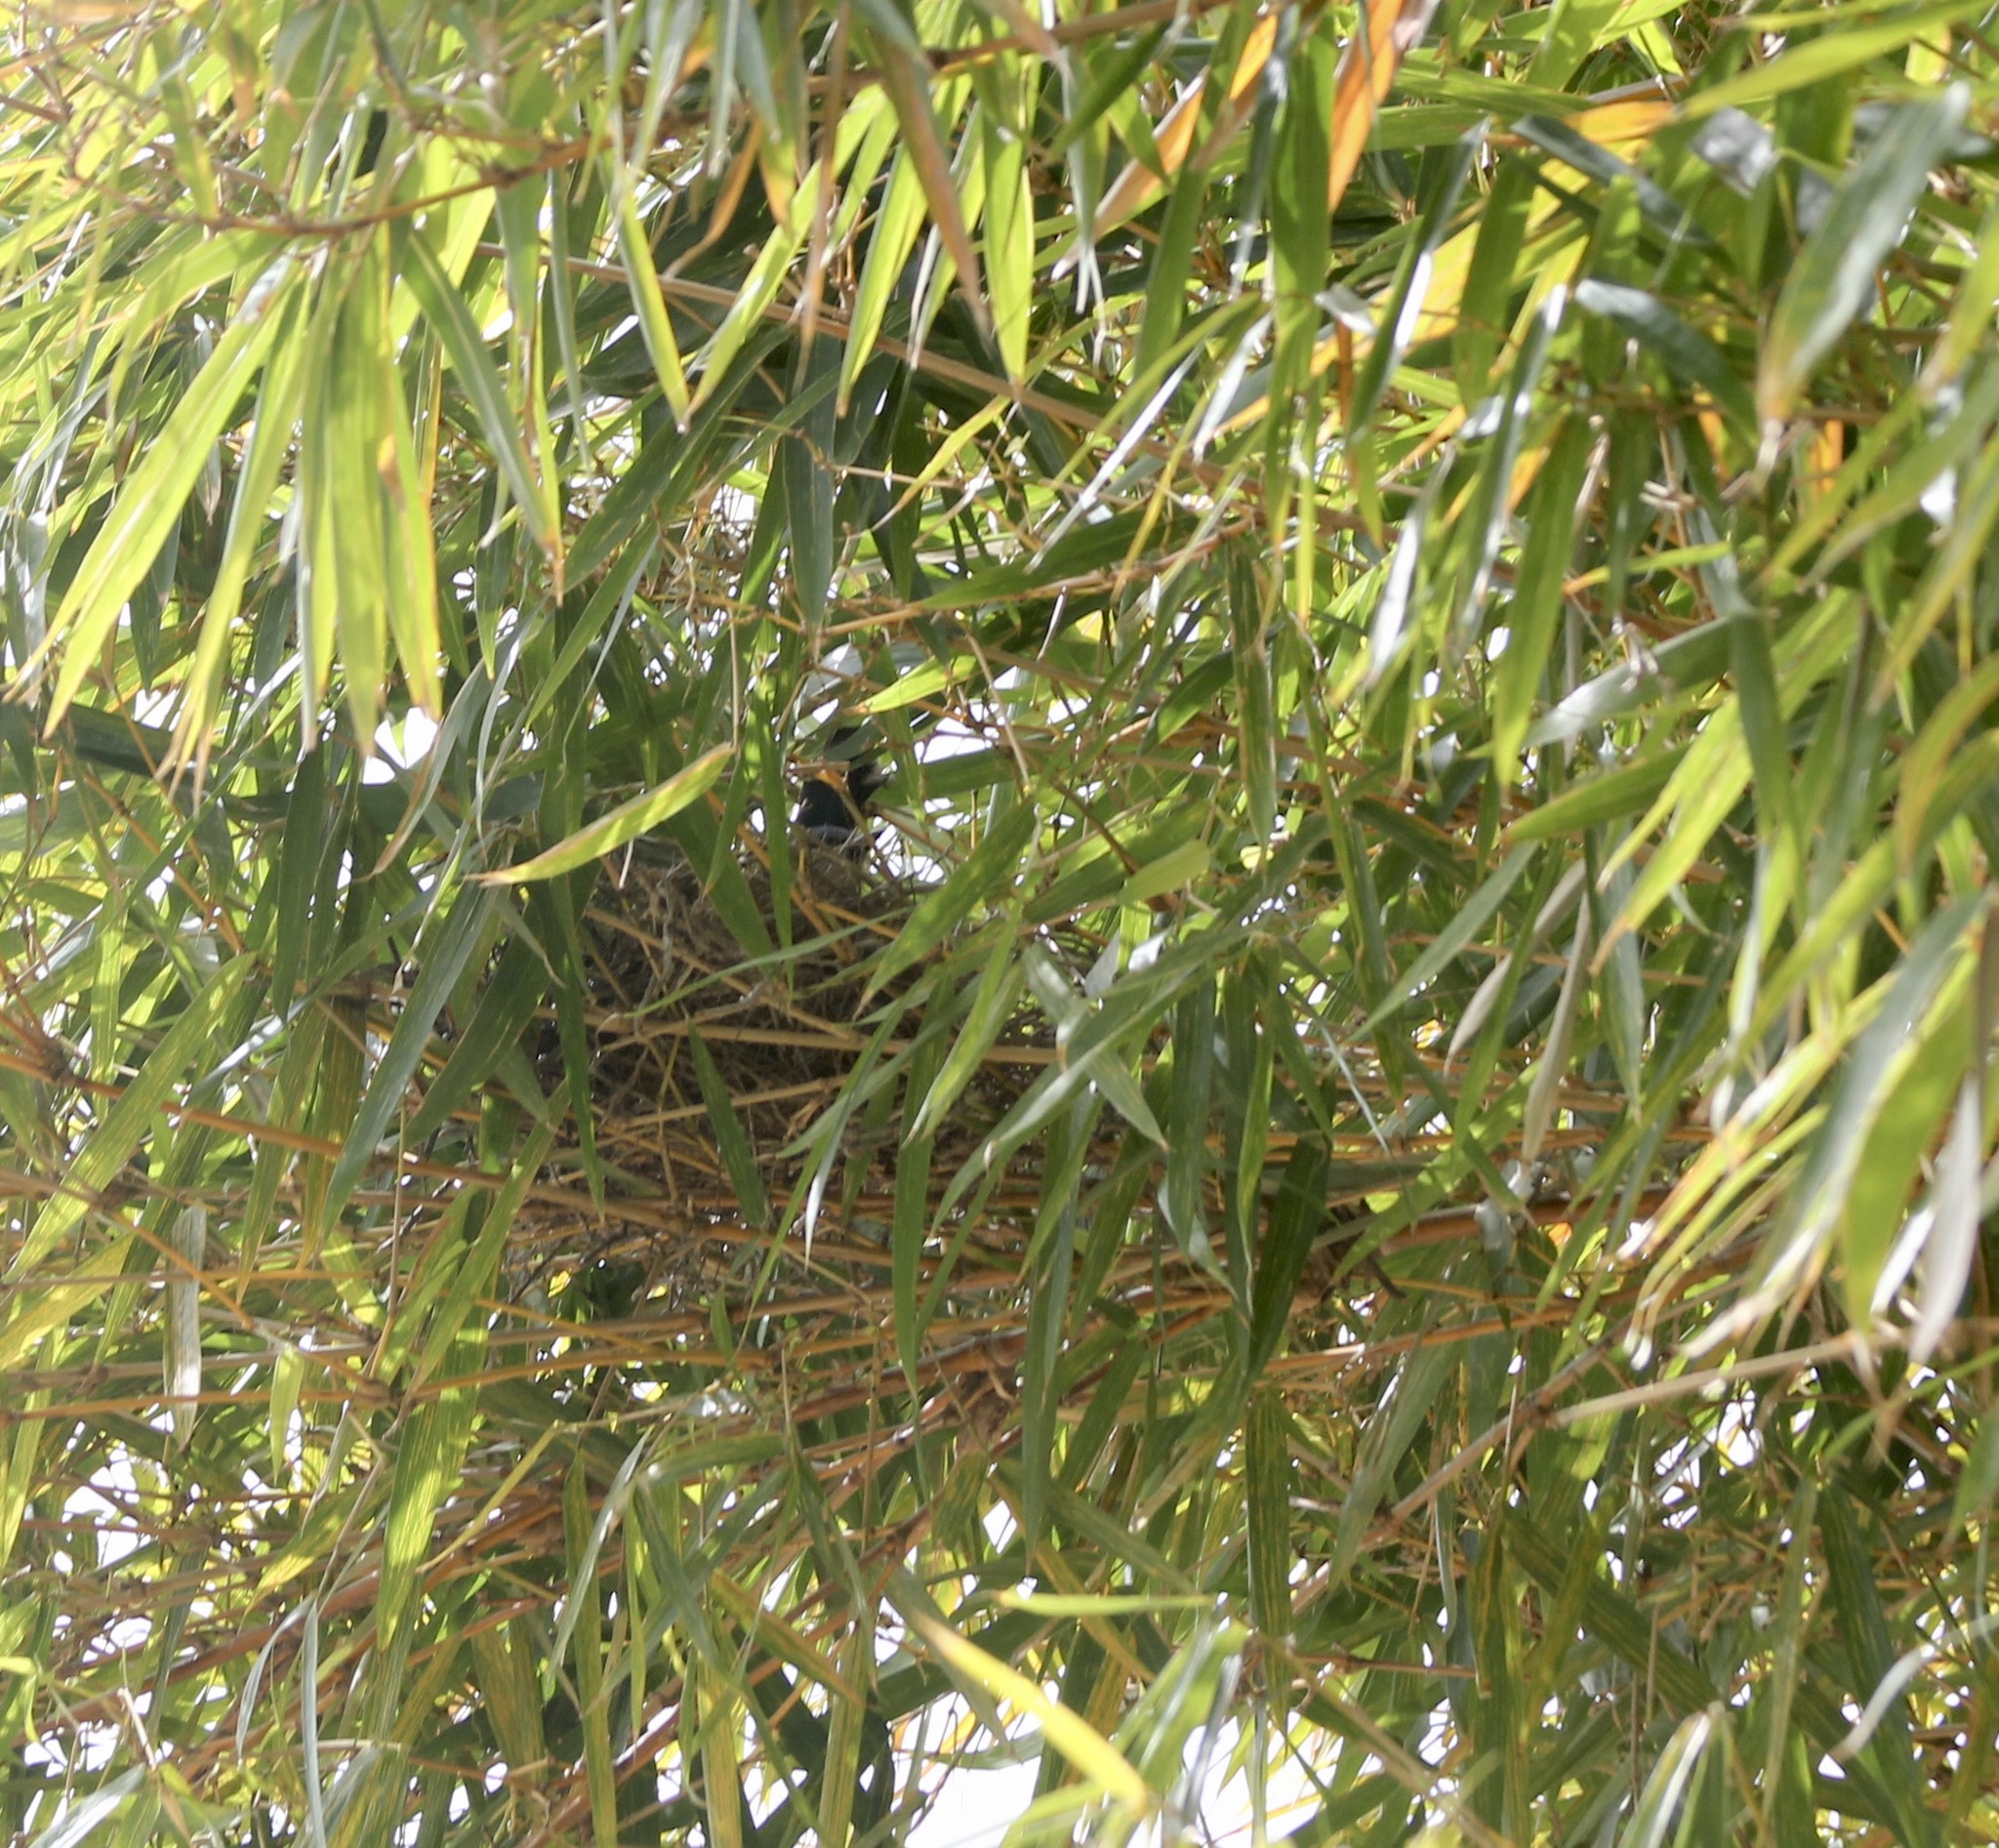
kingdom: Animalia
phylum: Chordata
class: Aves
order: Passeriformes
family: Corvidae
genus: Aphelocoma
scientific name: Aphelocoma californica
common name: California scrub-jay
